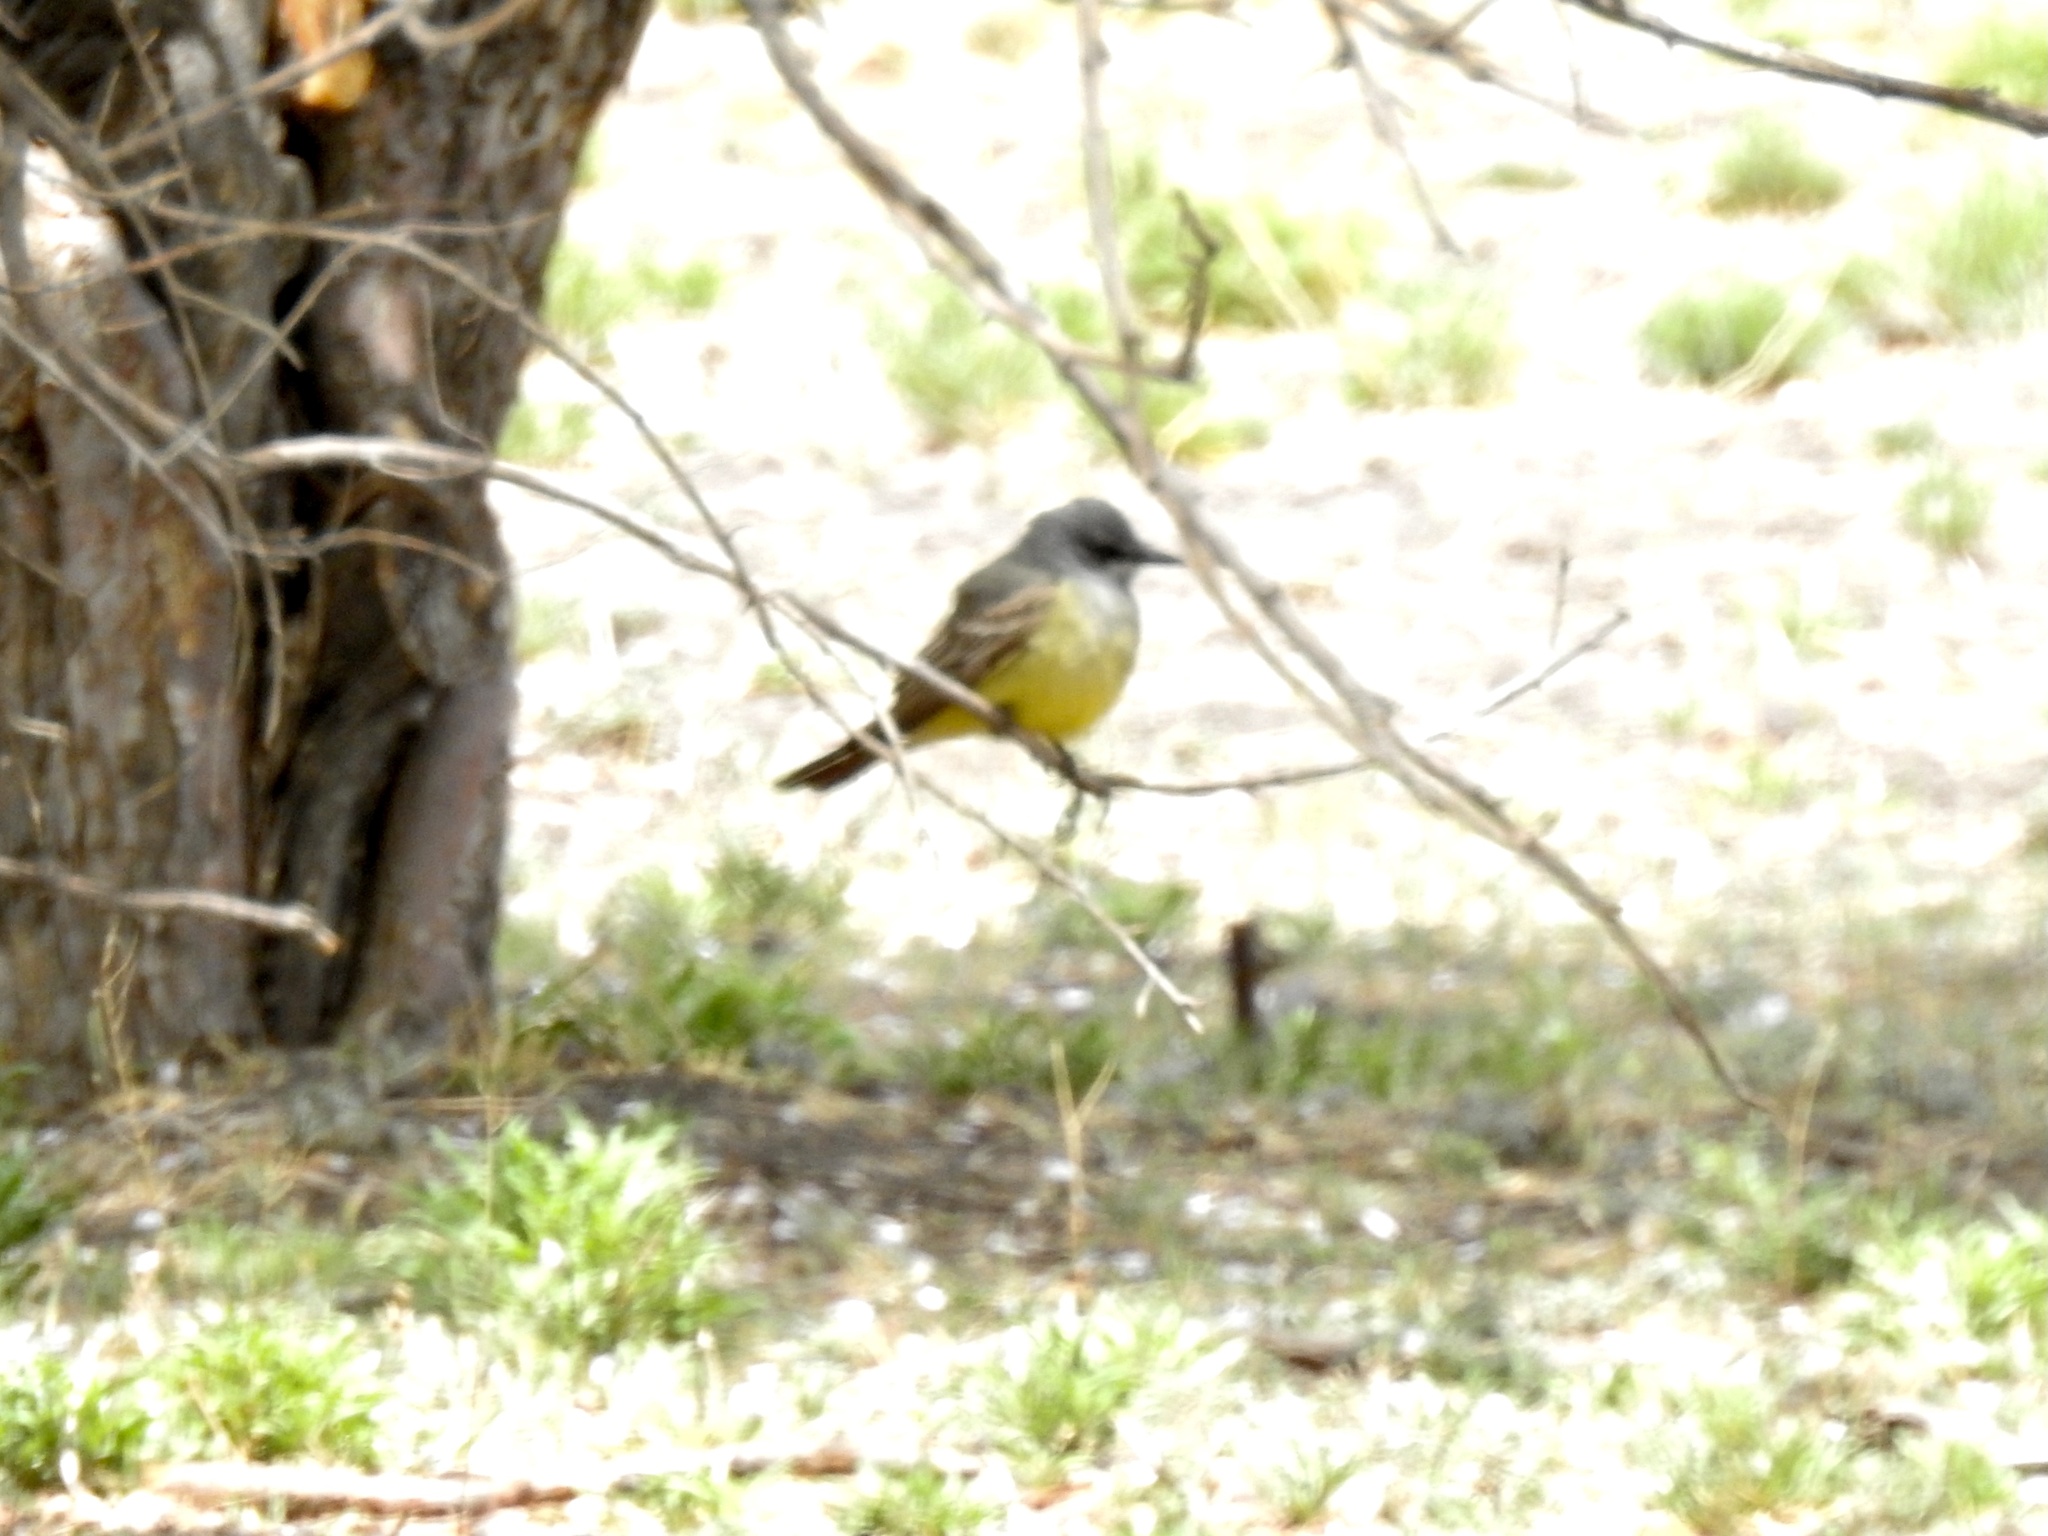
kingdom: Animalia
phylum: Chordata
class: Aves
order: Passeriformes
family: Tyrannidae
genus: Tyrannus
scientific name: Tyrannus vociferans
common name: Cassin's kingbird
